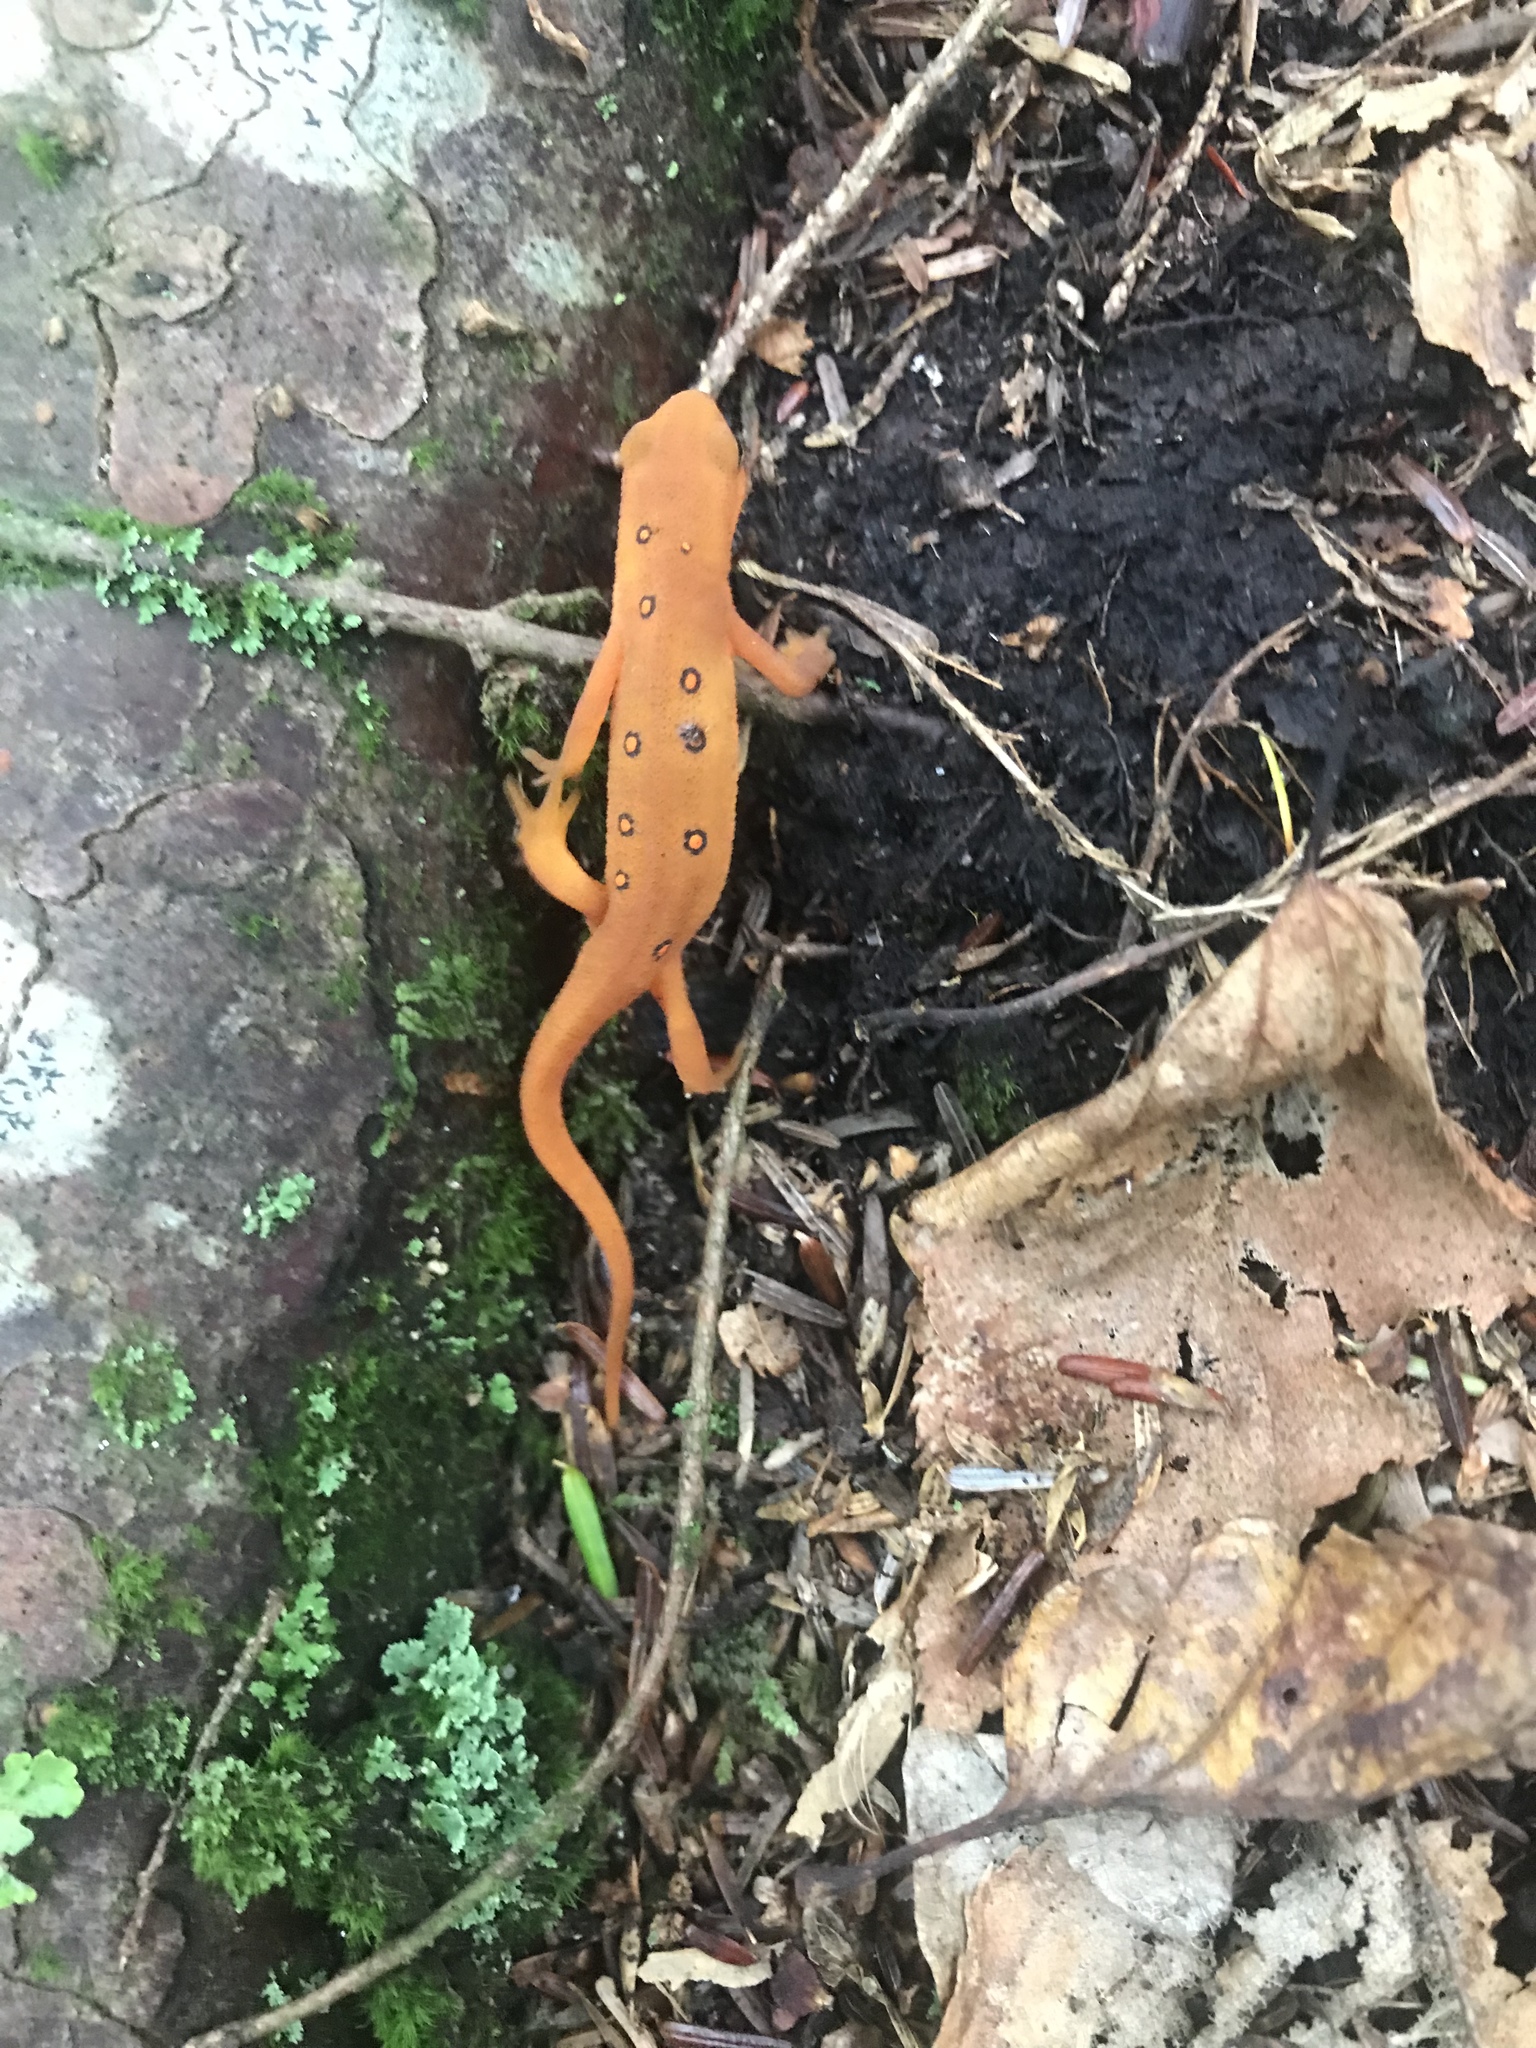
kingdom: Animalia
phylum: Chordata
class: Amphibia
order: Caudata
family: Salamandridae
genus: Notophthalmus
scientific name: Notophthalmus viridescens
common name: Eastern newt
